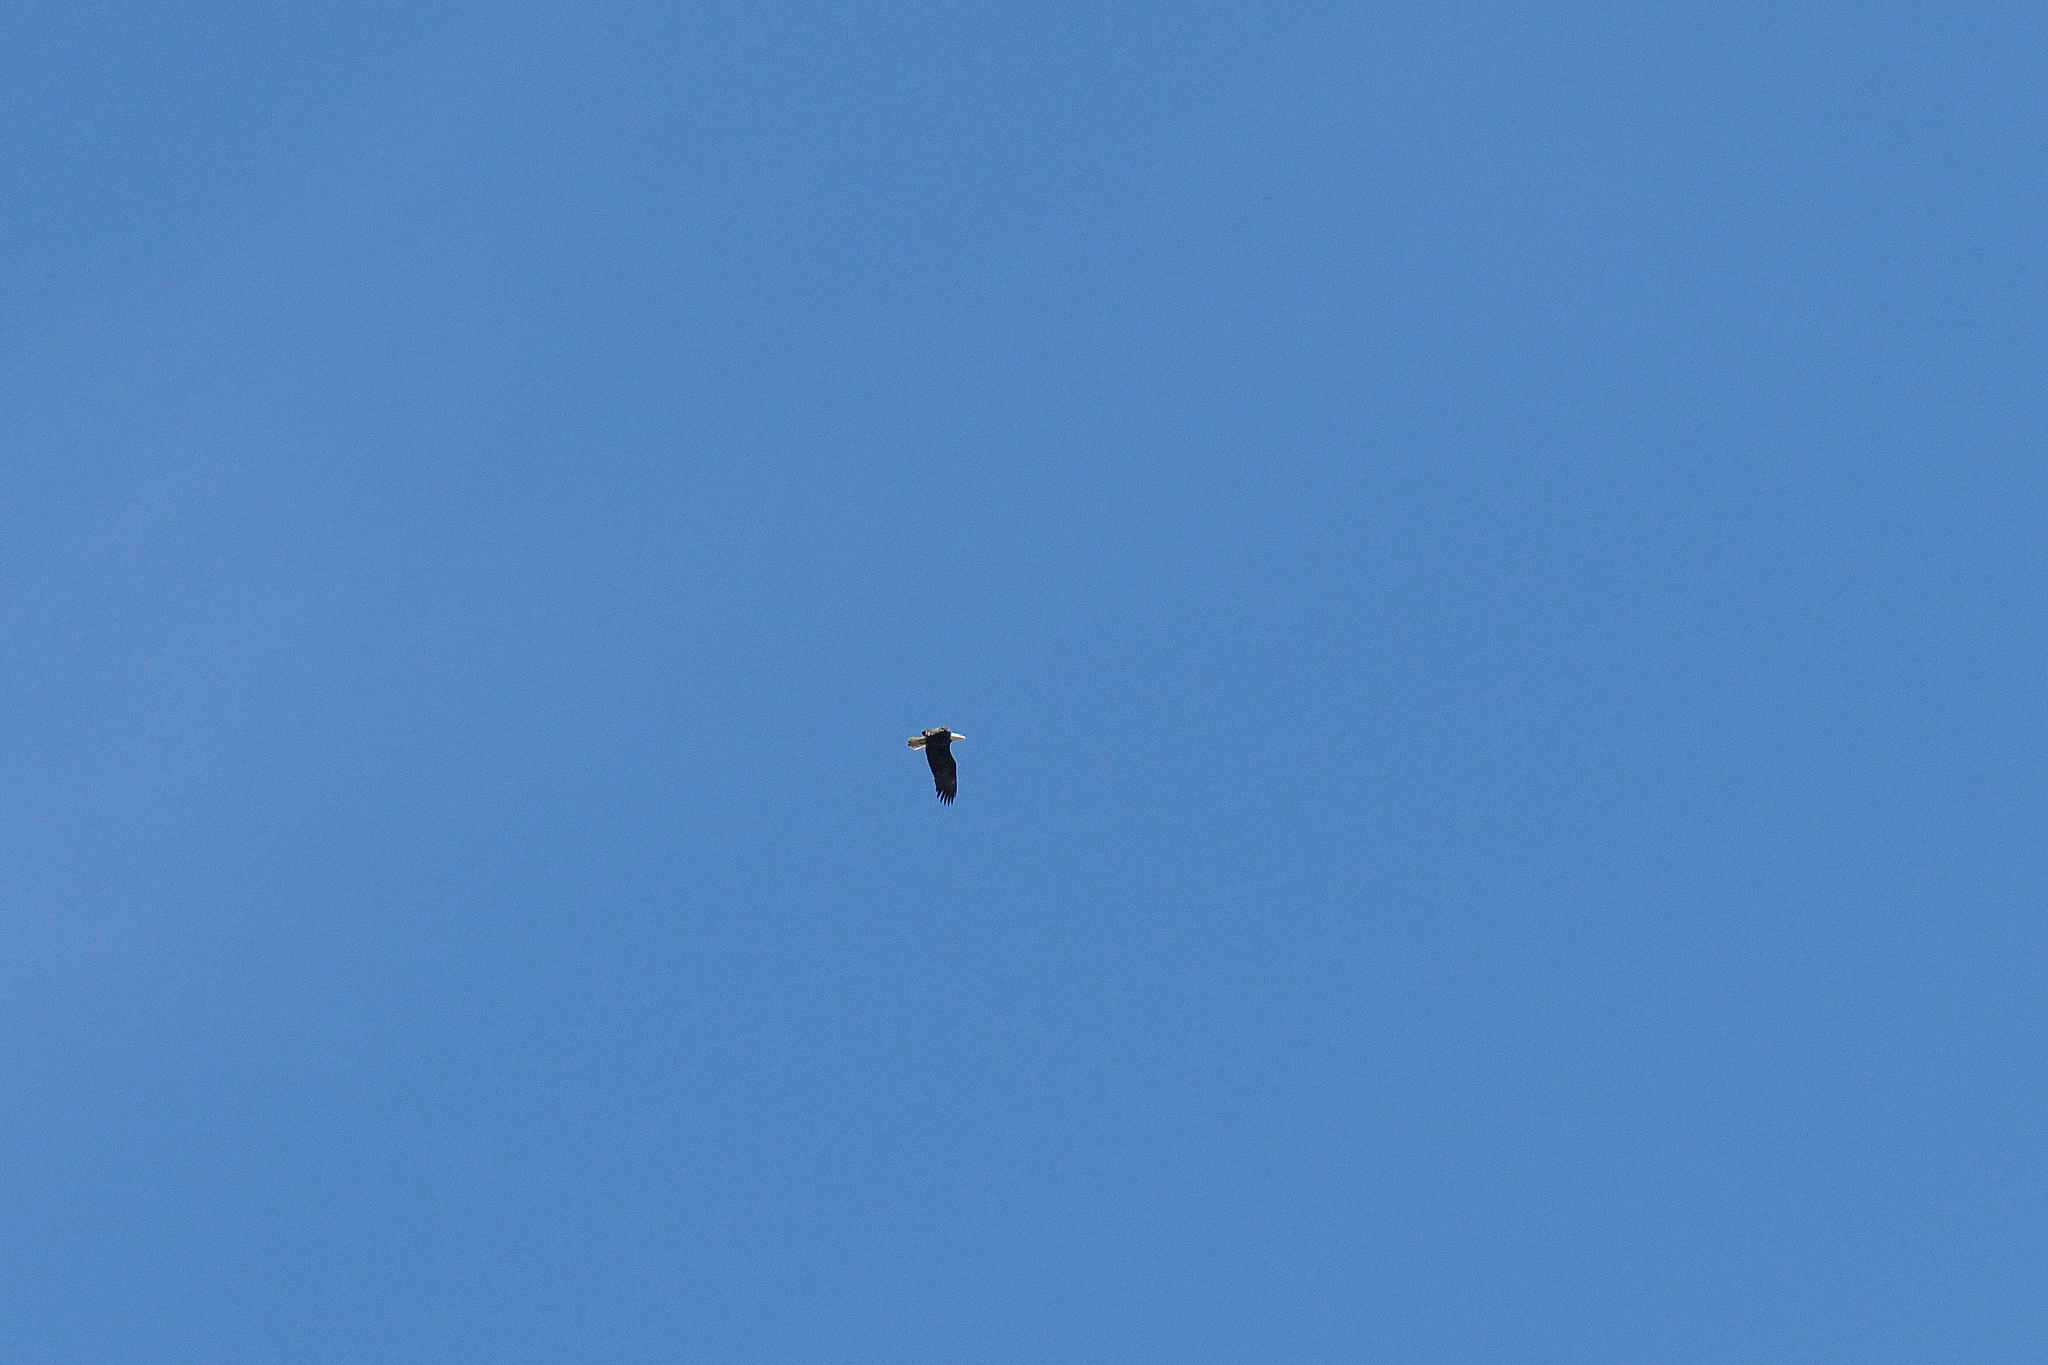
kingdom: Animalia
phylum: Chordata
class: Aves
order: Accipitriformes
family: Accipitridae
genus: Haliaeetus
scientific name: Haliaeetus leucocephalus
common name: Bald eagle
